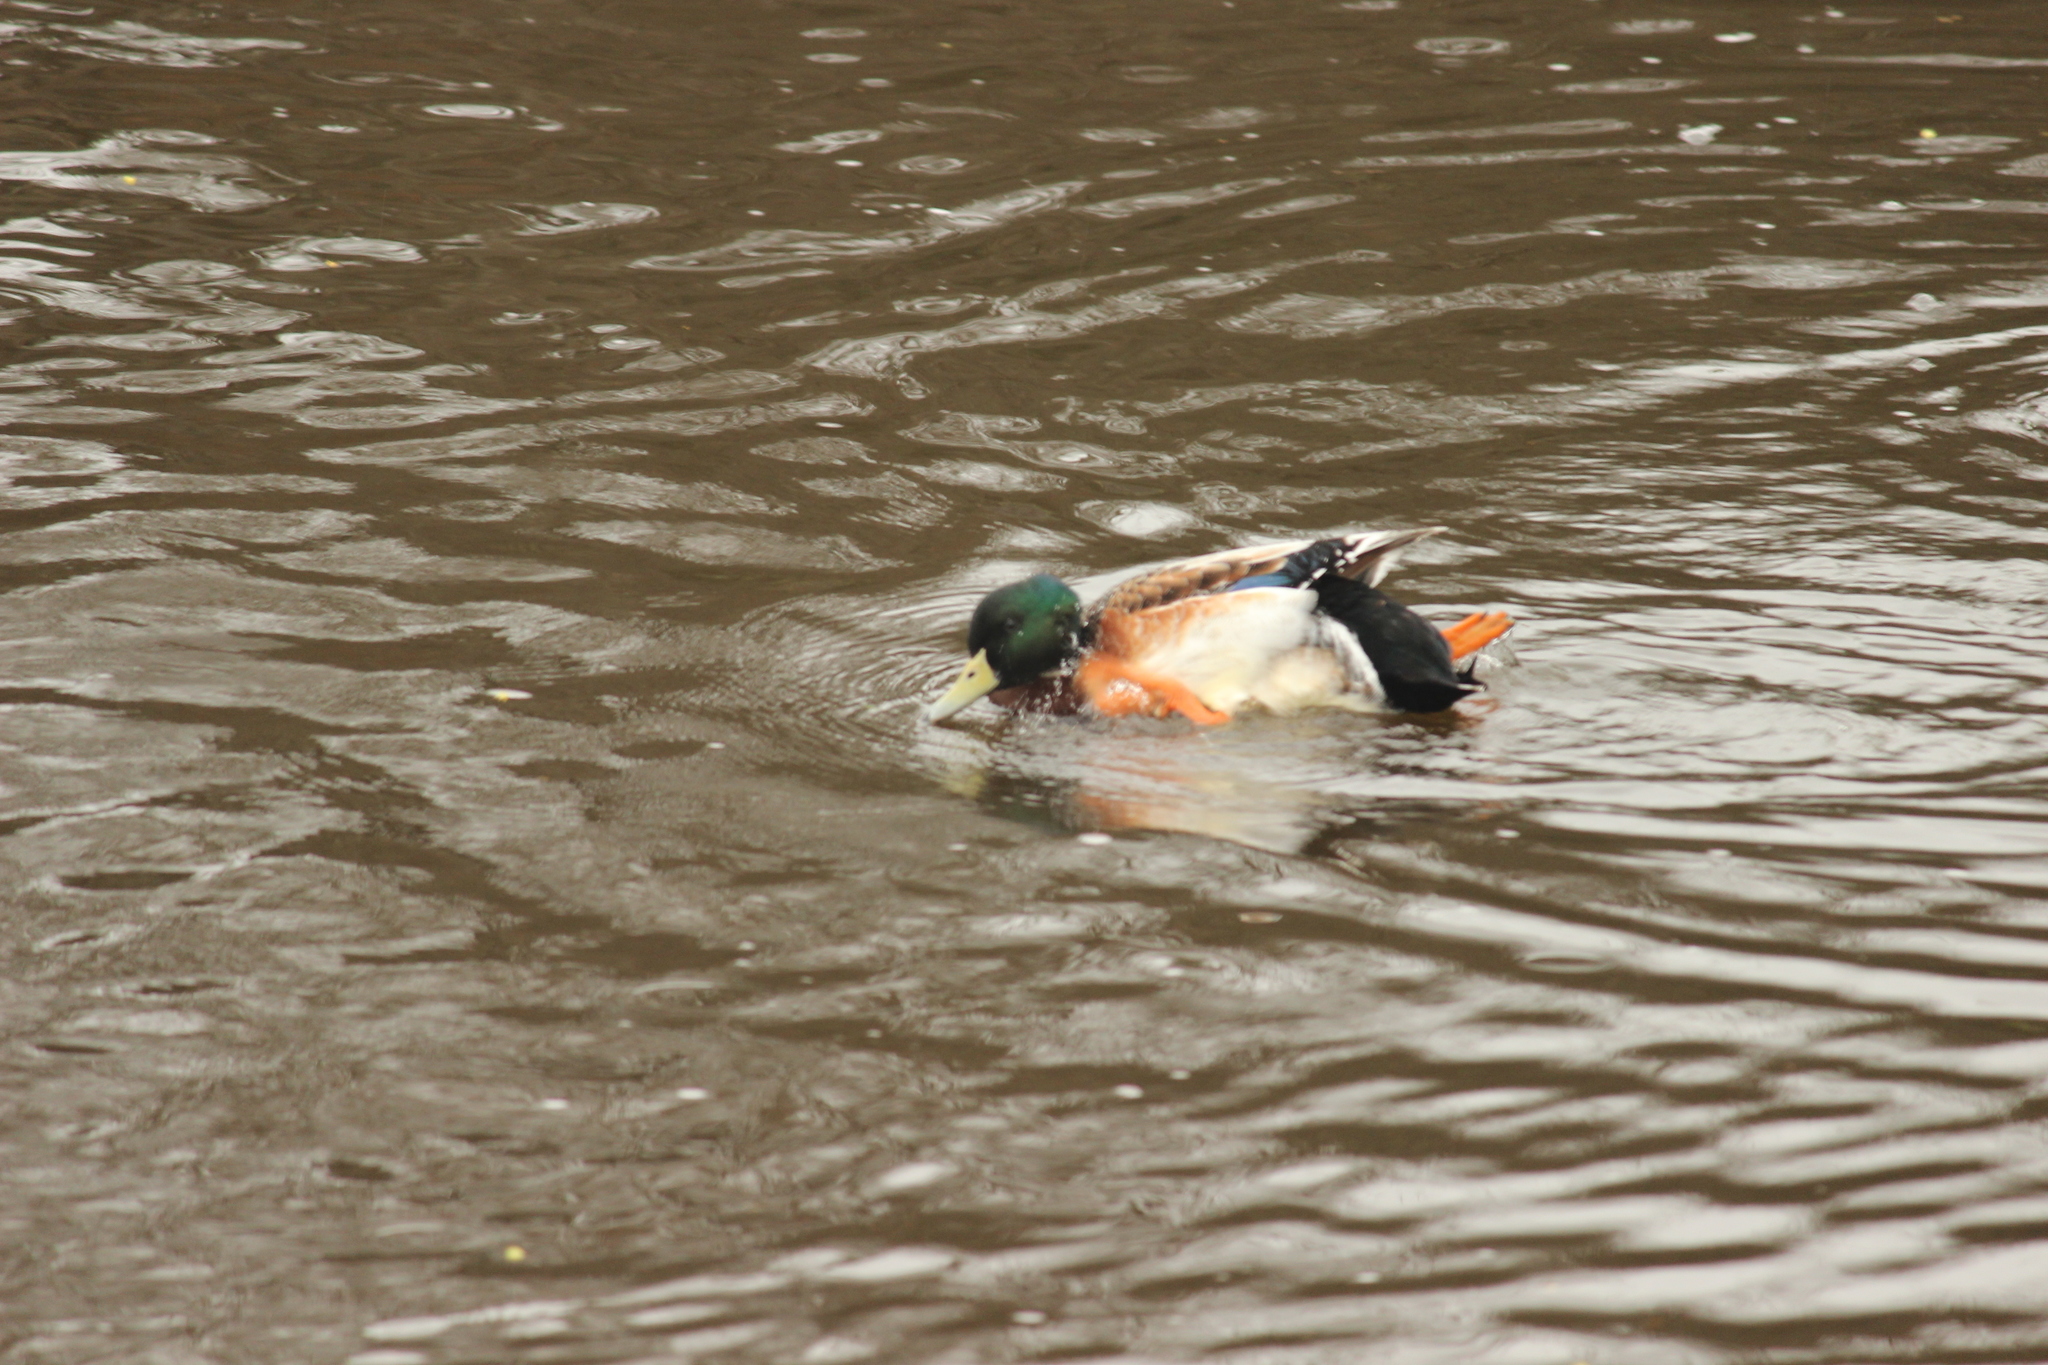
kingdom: Animalia
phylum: Chordata
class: Aves
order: Anseriformes
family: Anatidae
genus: Anas
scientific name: Anas platyrhynchos
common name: Mallard
